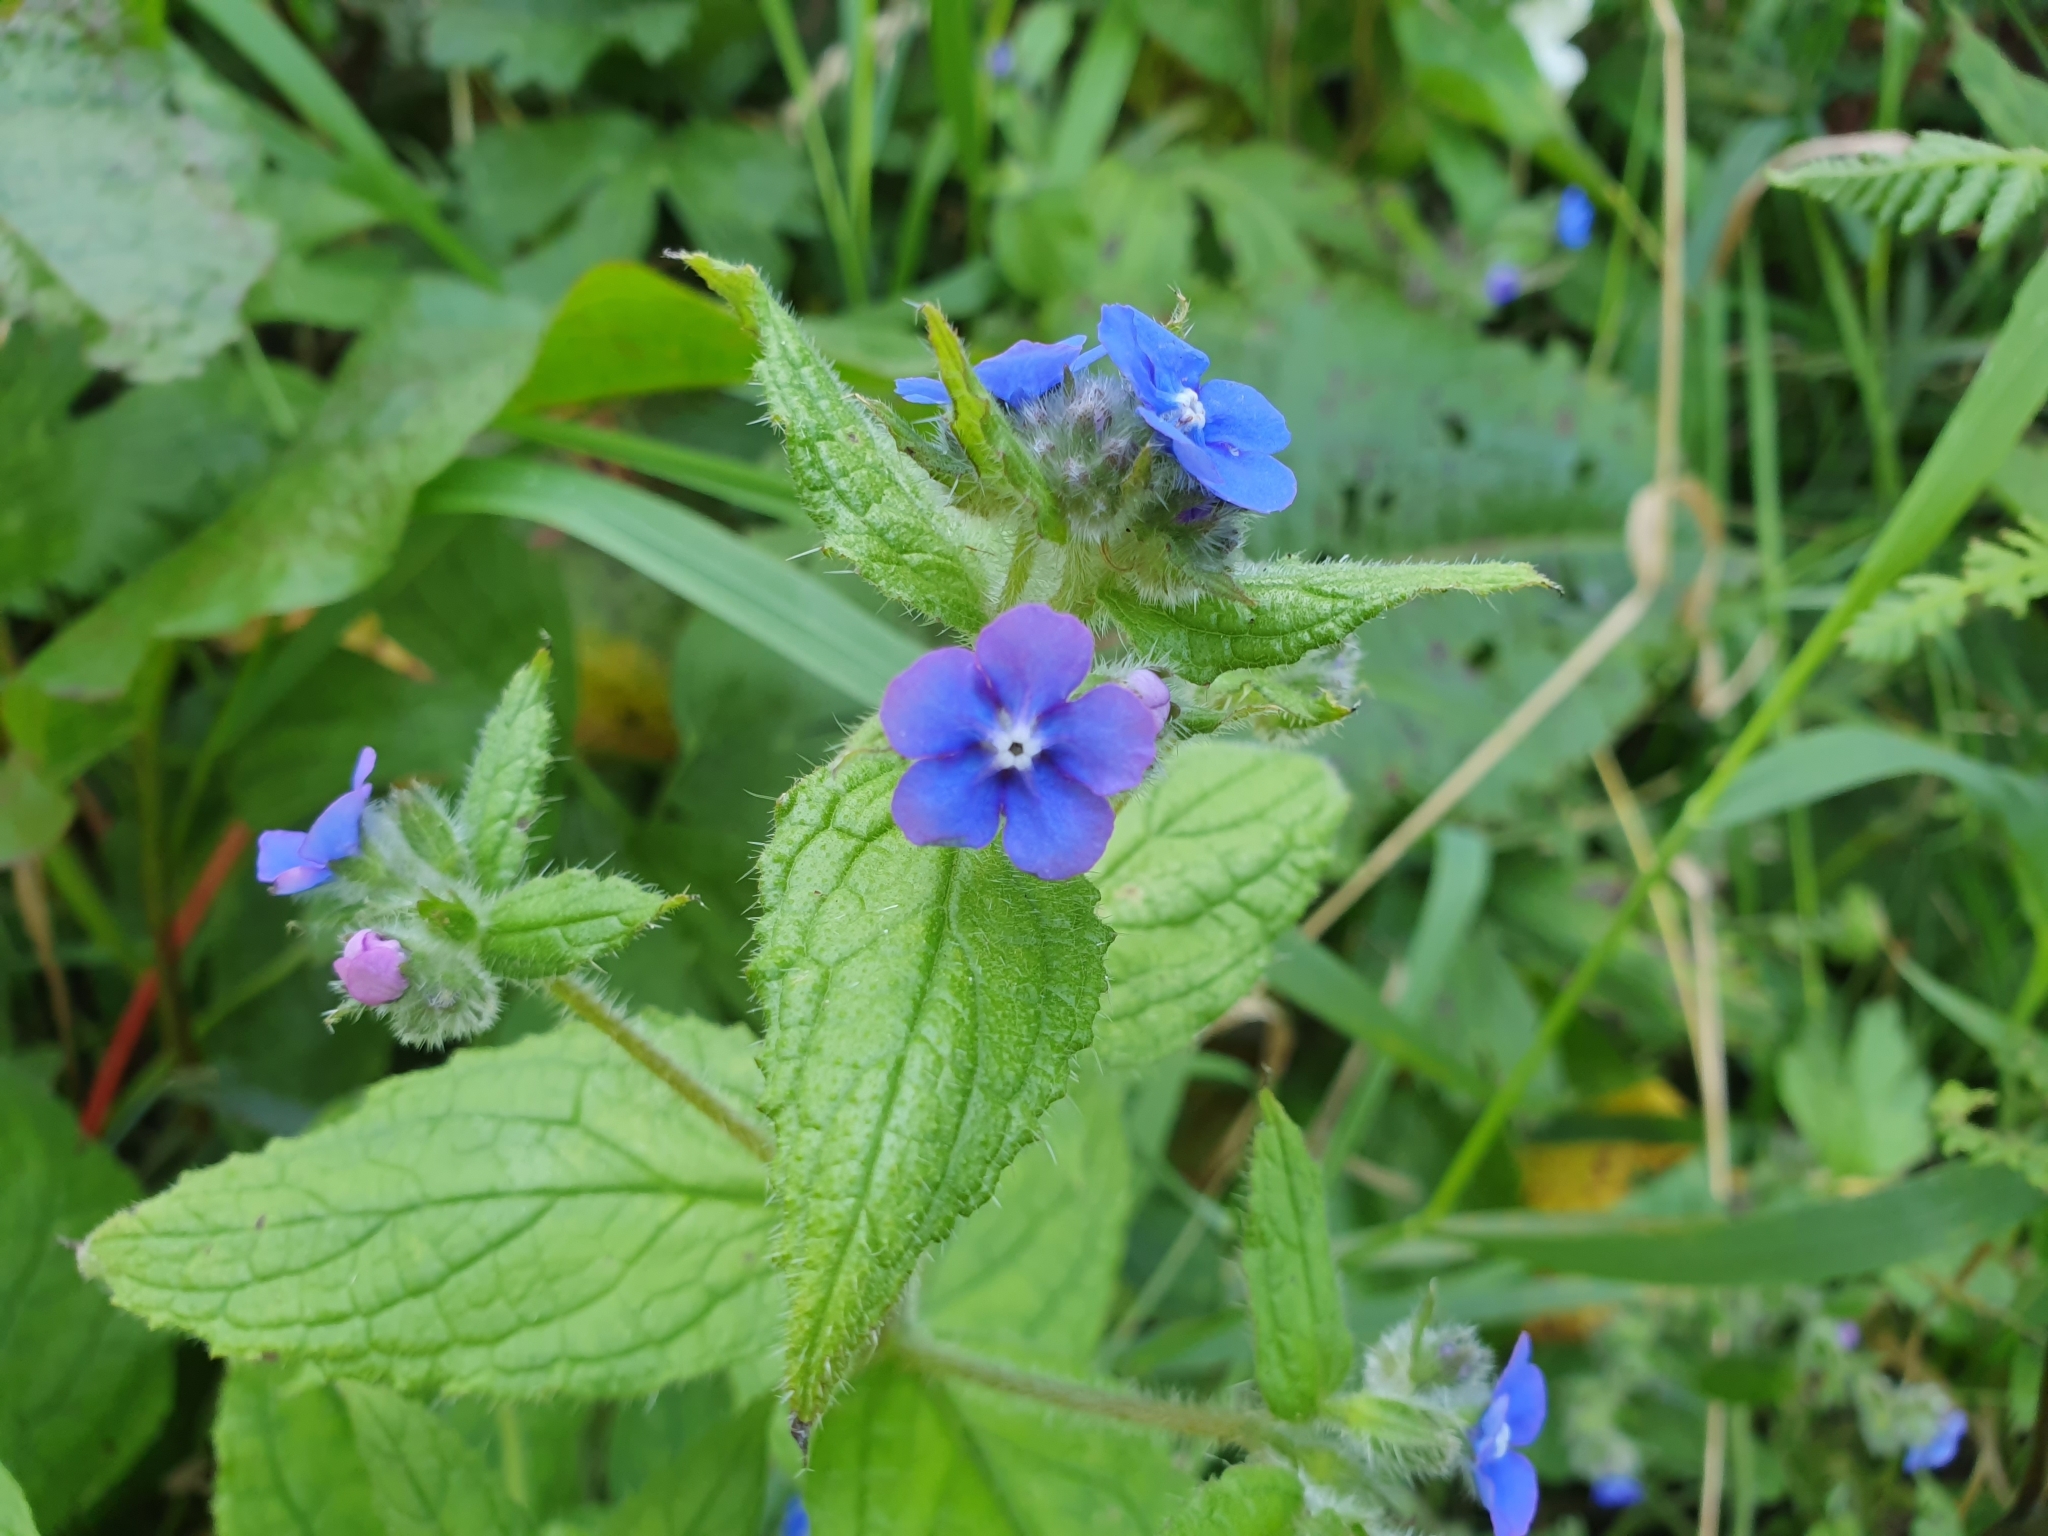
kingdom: Plantae
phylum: Tracheophyta
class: Magnoliopsida
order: Boraginales
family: Boraginaceae
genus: Pentaglottis
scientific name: Pentaglottis sempervirens
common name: Green alkanet
